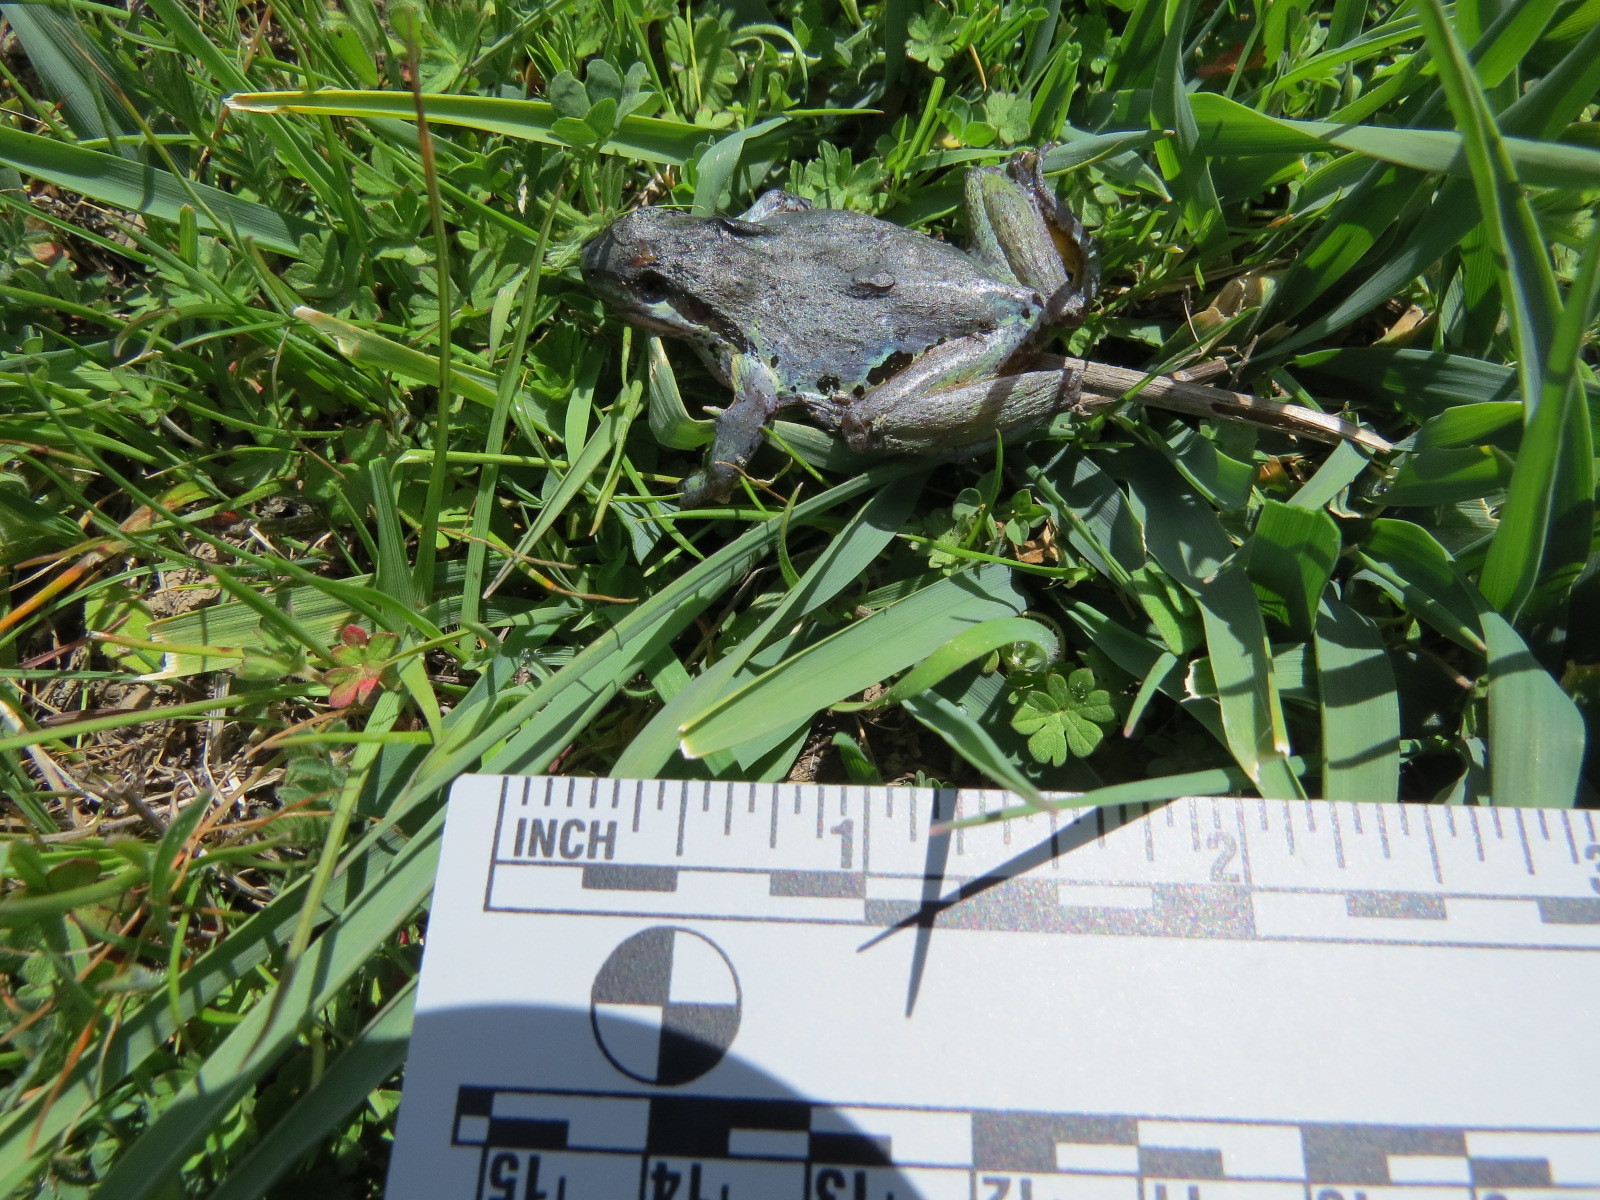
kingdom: Animalia
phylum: Chordata
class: Amphibia
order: Anura
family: Hylidae
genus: Pseudacris
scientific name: Pseudacris regilla
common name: Pacific chorus frog
